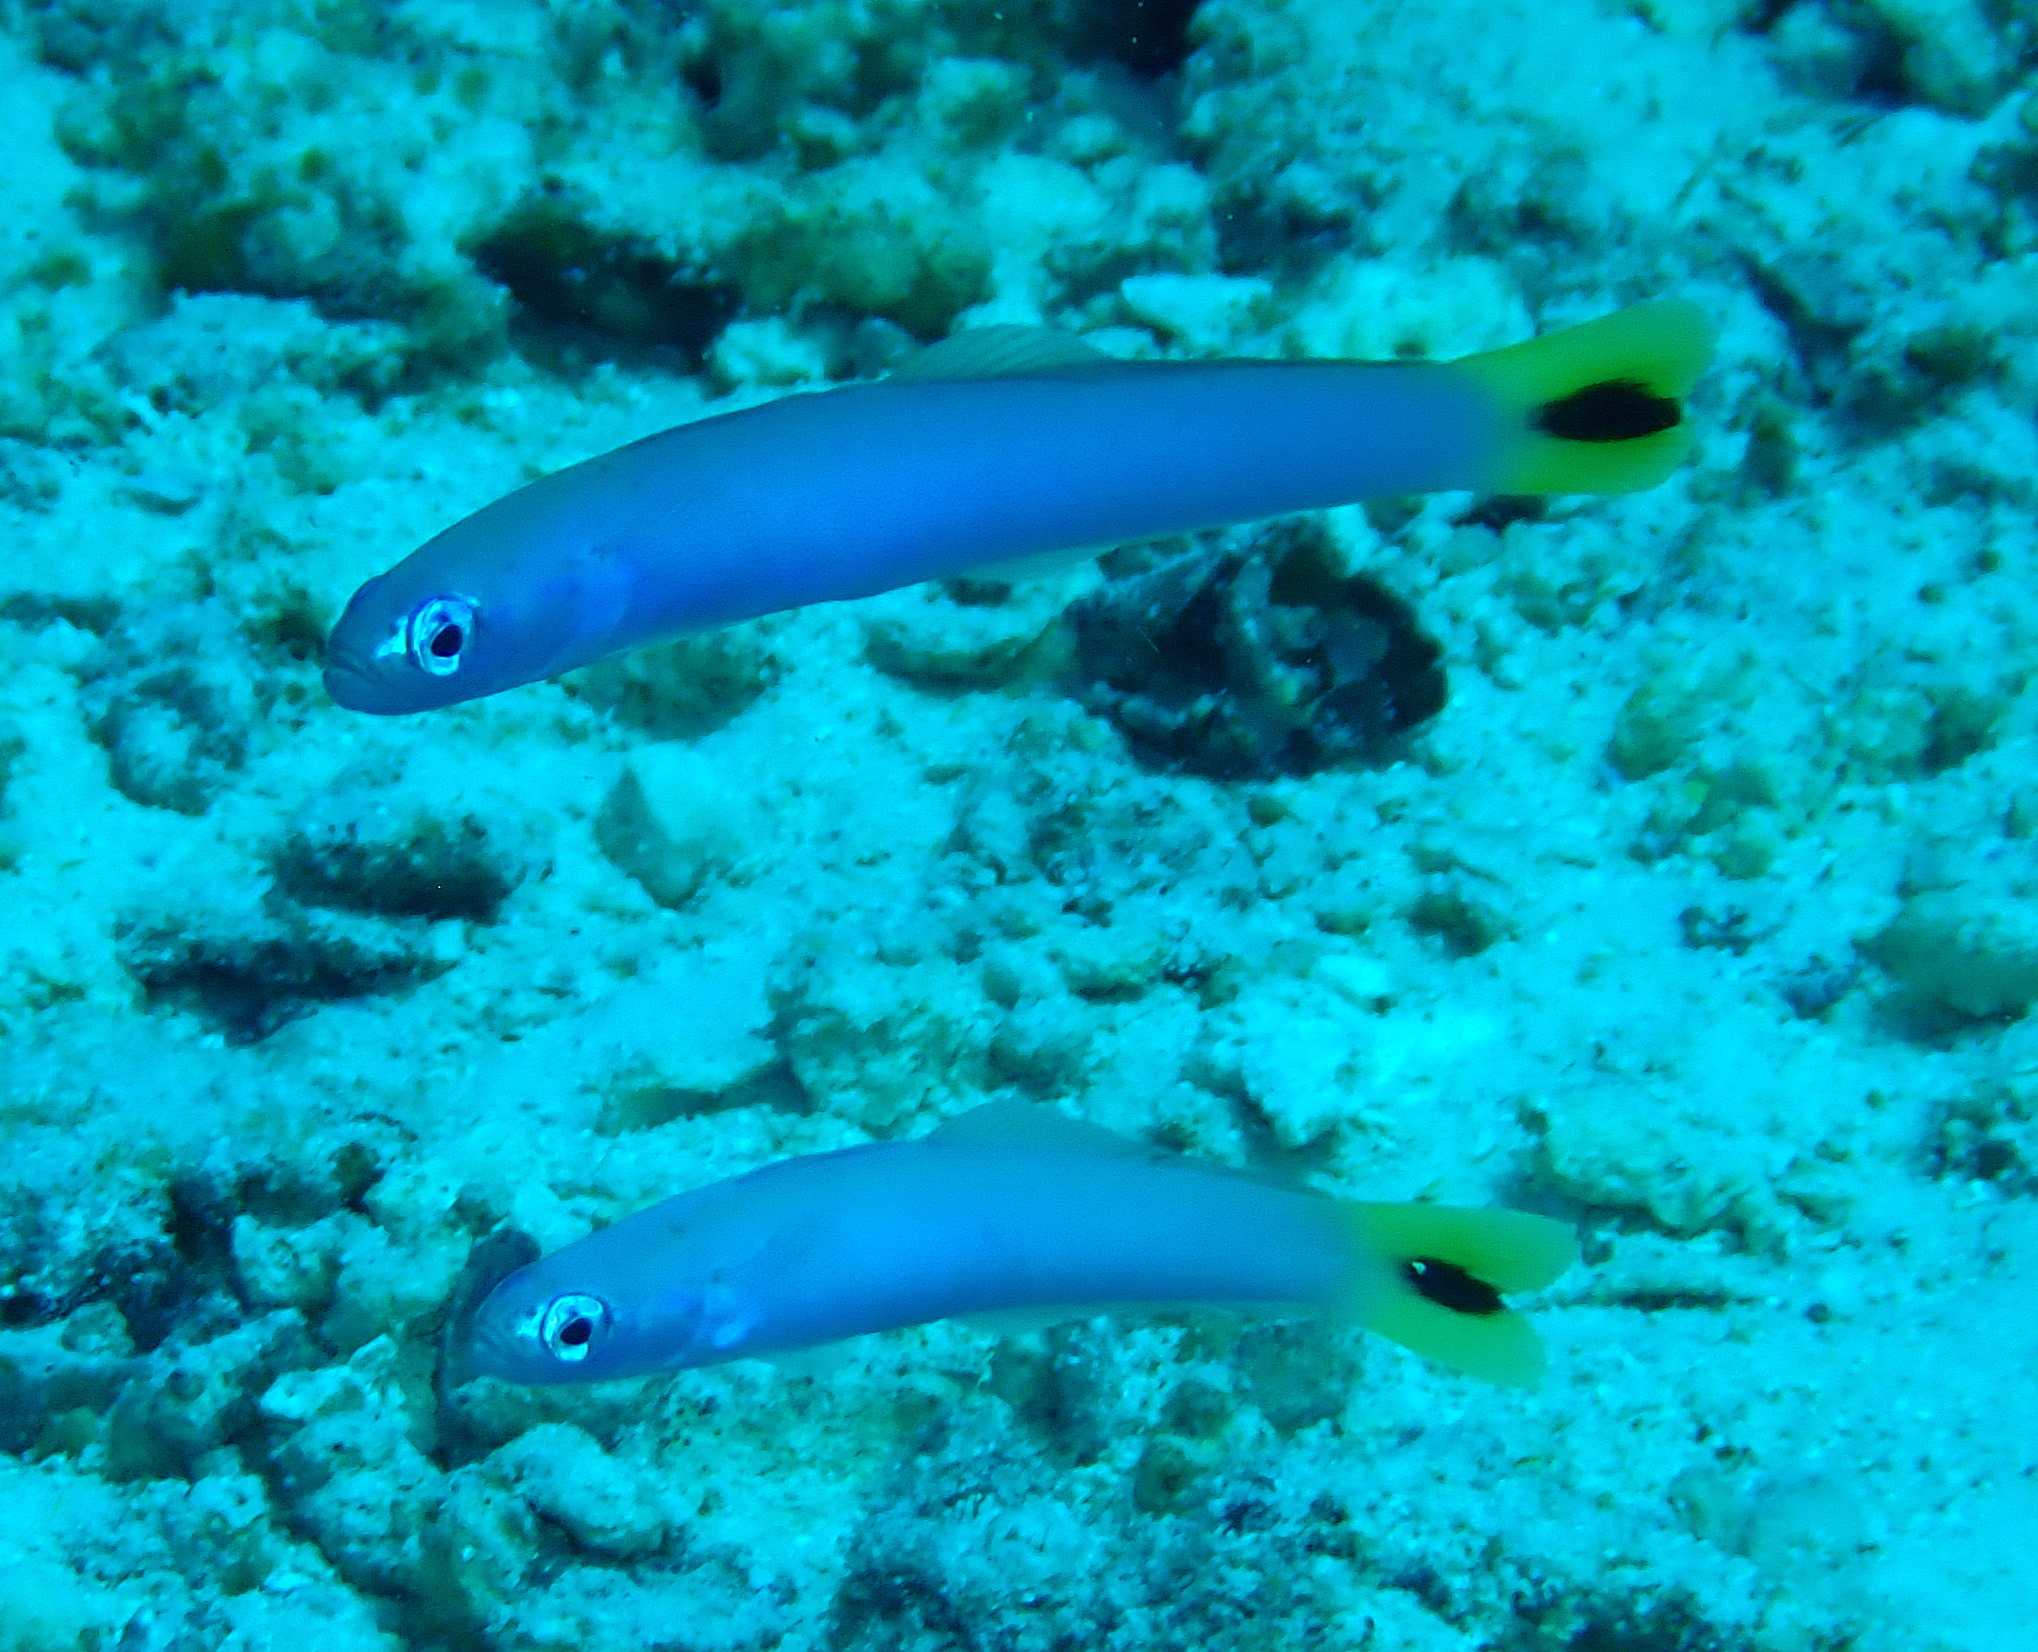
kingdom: Animalia
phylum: Chordata
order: Perciformes
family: Microdesmidae
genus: Ptereleotris
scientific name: Ptereleotris heteroptera
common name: Blacktail goby
